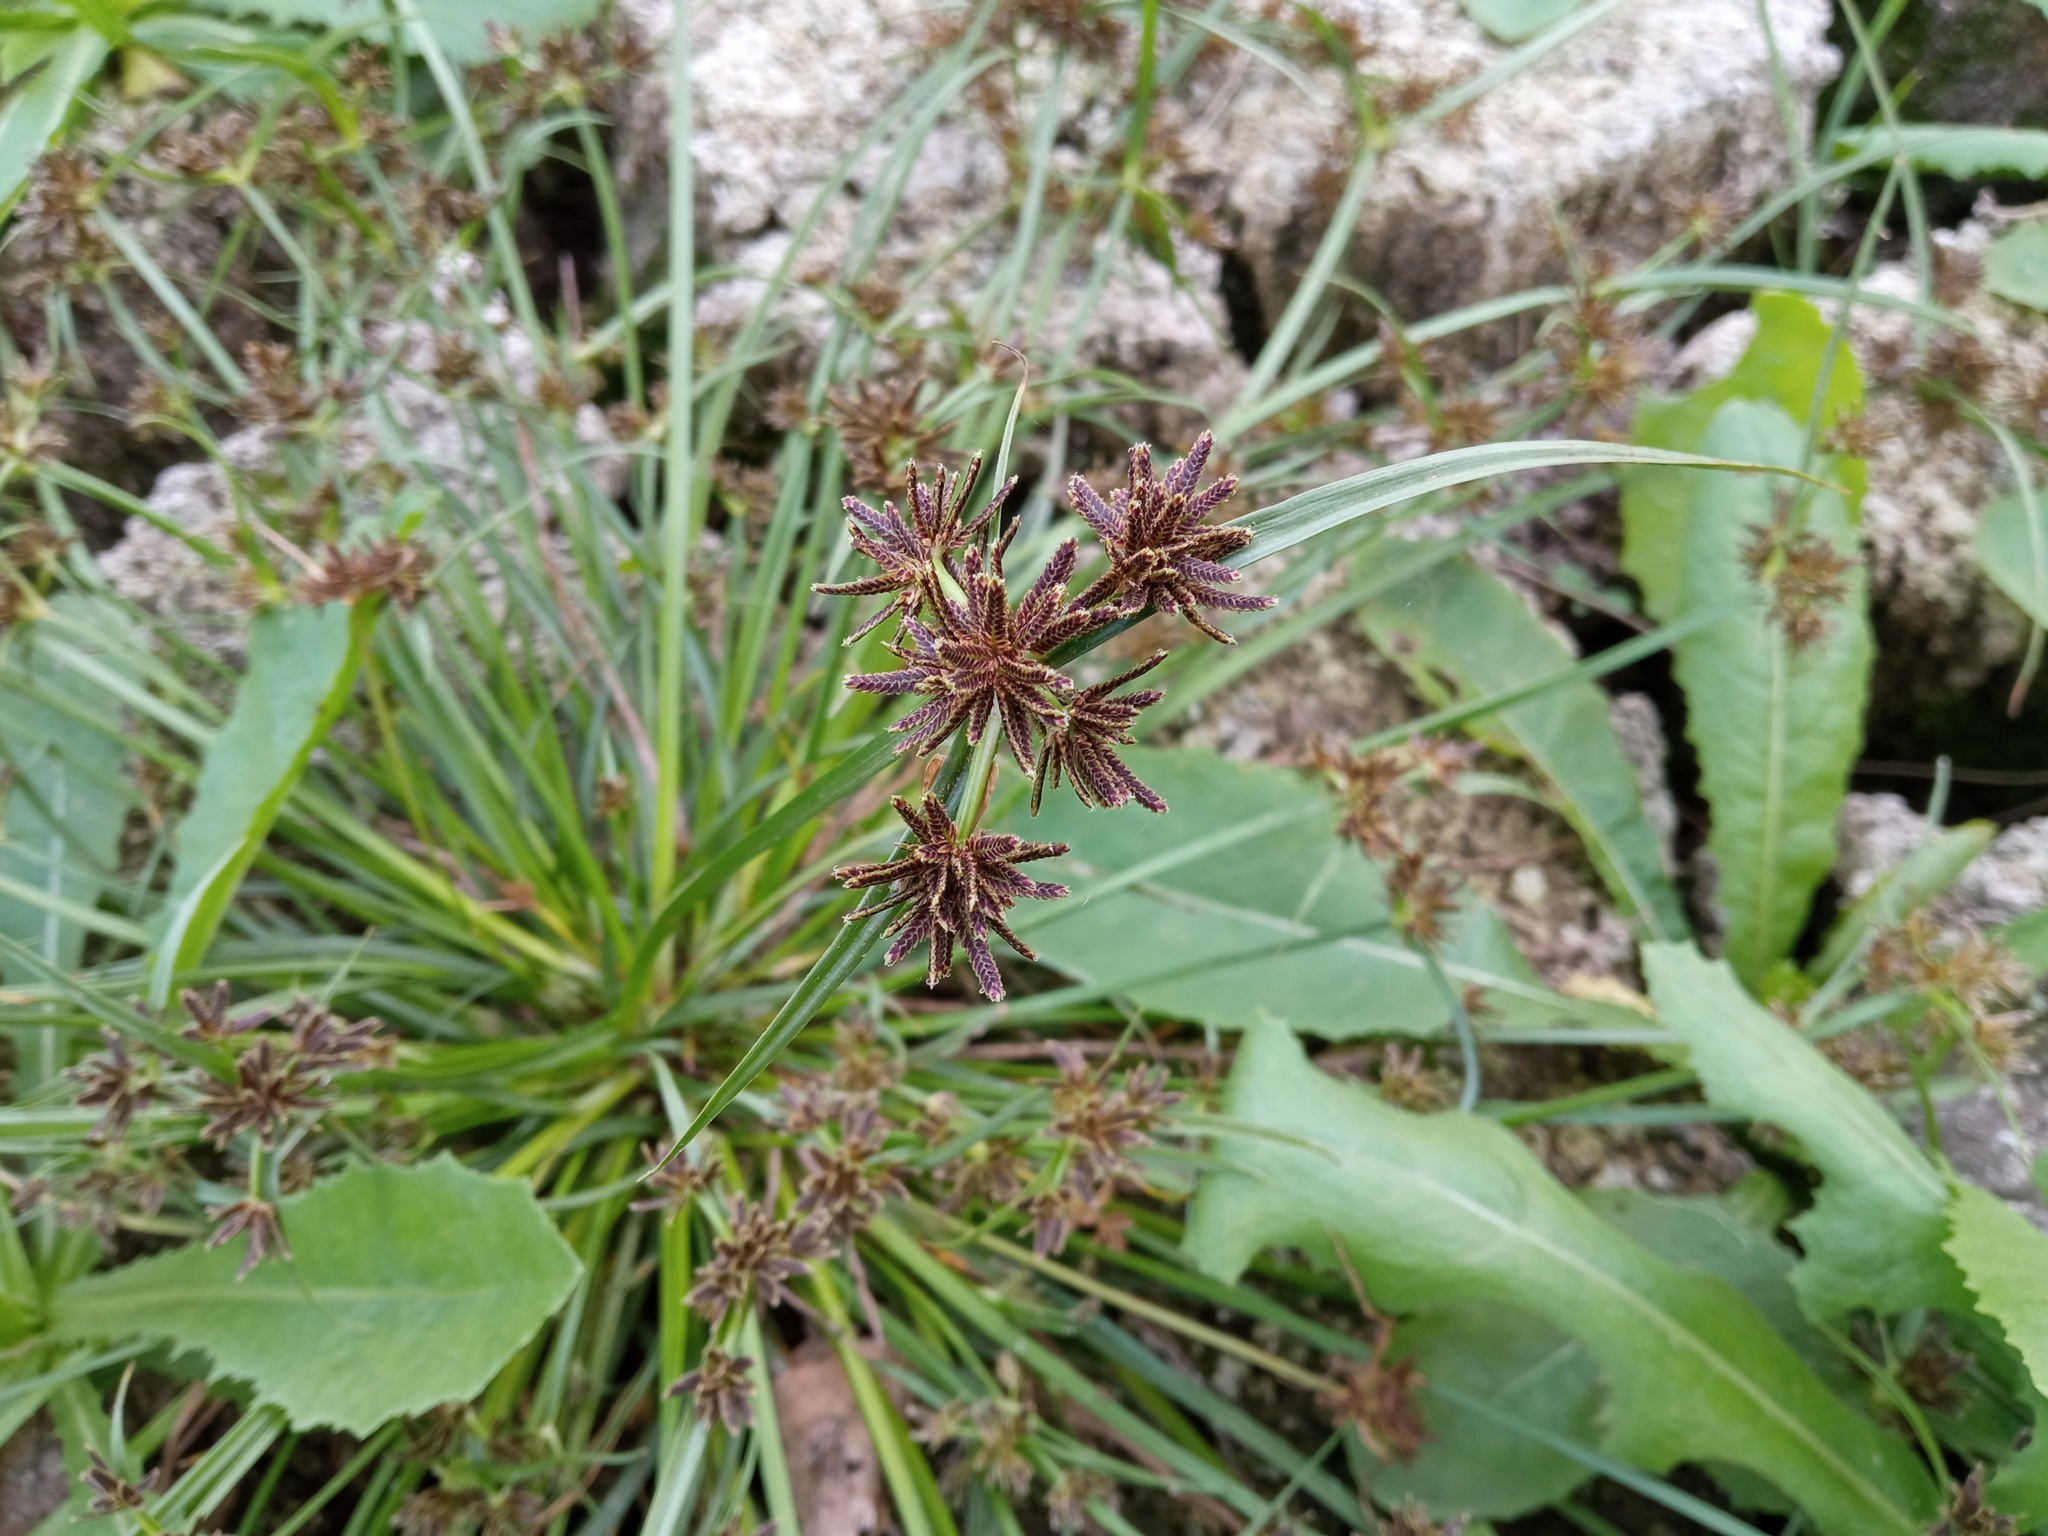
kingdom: Plantae
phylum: Tracheophyta
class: Liliopsida
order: Poales
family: Cyperaceae
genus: Cyperus
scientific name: Cyperus fuscus
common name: Brown galingale
